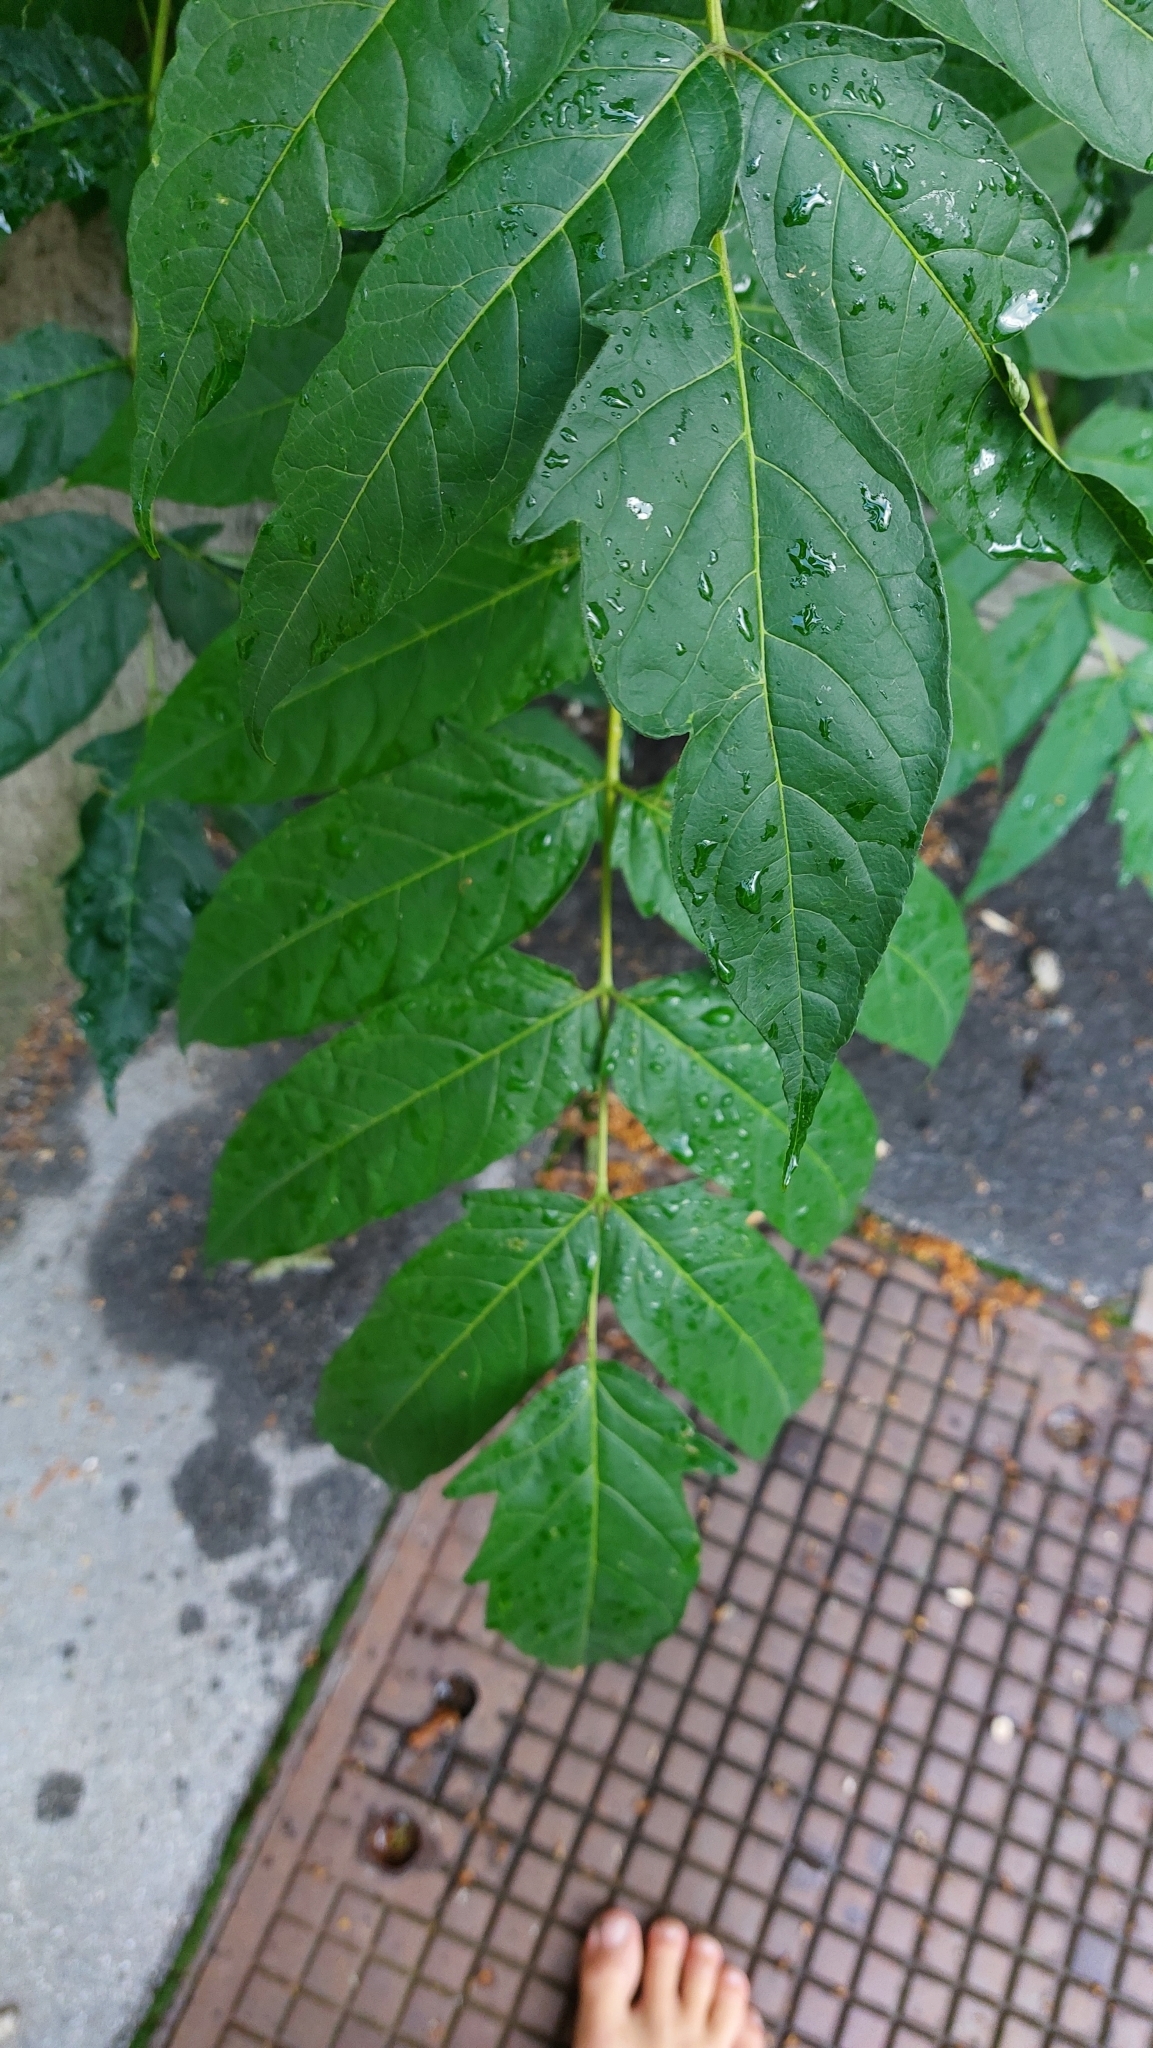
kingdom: Plantae
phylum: Tracheophyta
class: Magnoliopsida
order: Sapindales
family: Simaroubaceae
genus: Ailanthus
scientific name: Ailanthus altissima
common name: Tree-of-heaven
